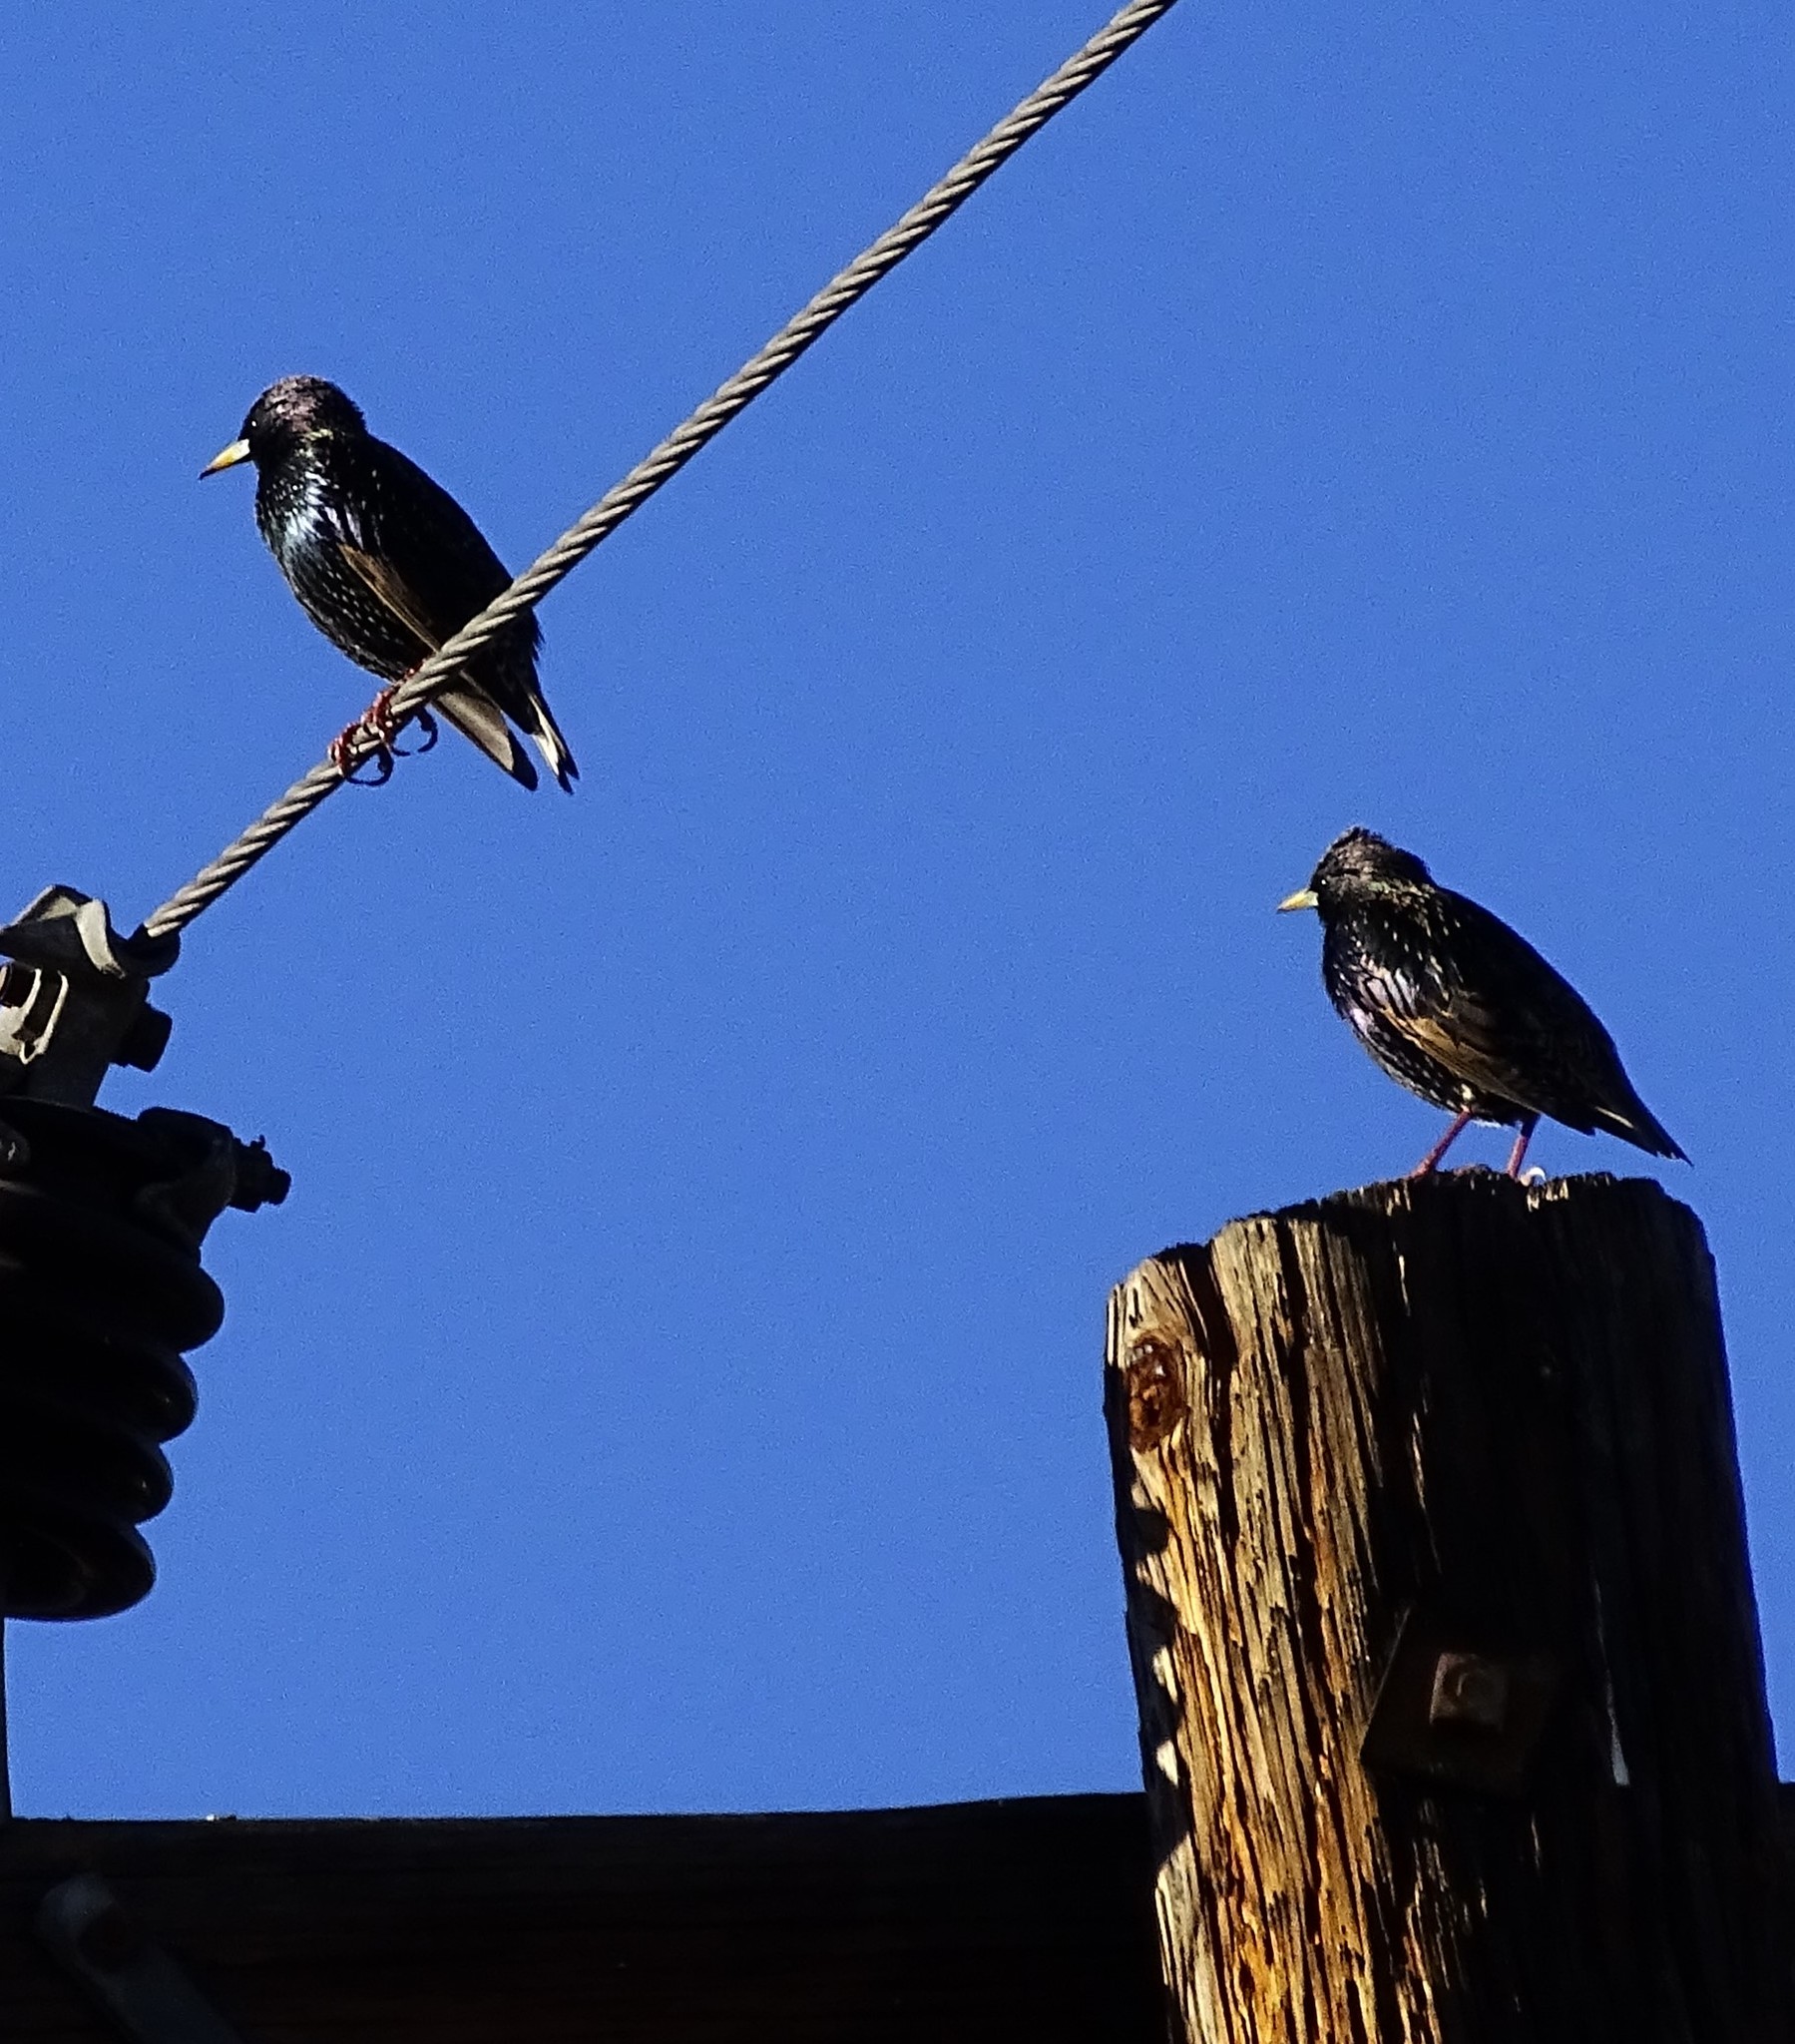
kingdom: Animalia
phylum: Chordata
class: Aves
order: Passeriformes
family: Sturnidae
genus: Sturnus
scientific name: Sturnus vulgaris
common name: Common starling
